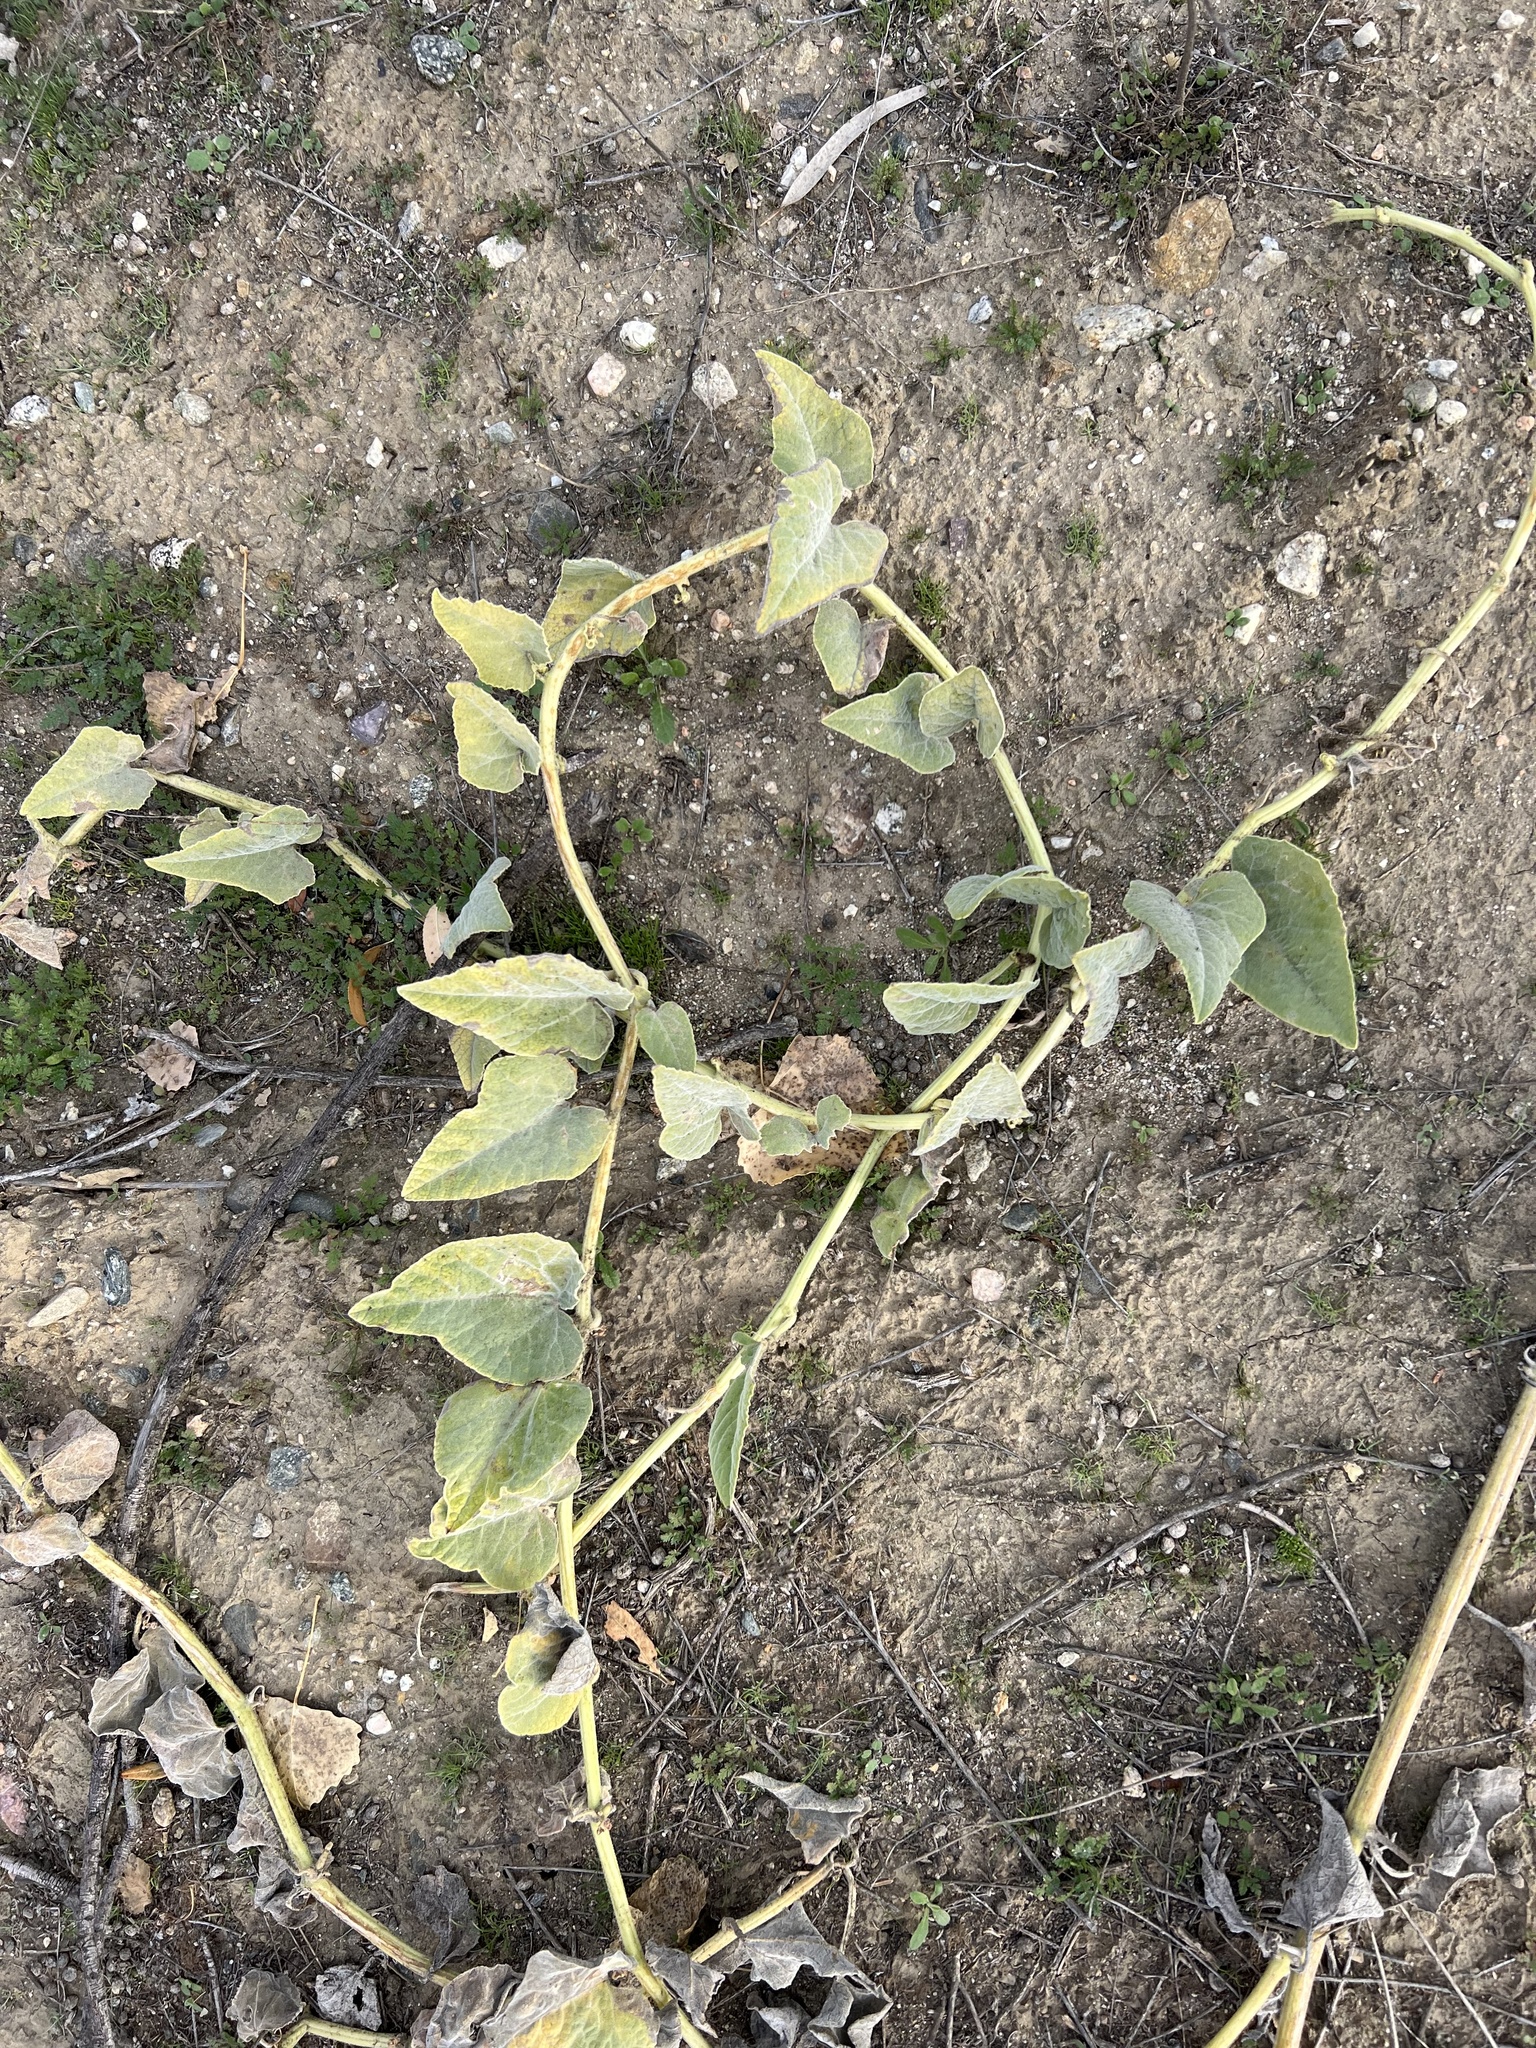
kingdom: Plantae
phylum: Tracheophyta
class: Magnoliopsida
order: Cucurbitales
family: Cucurbitaceae
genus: Cucurbita
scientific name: Cucurbita foetidissima
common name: Buffalo gourd
